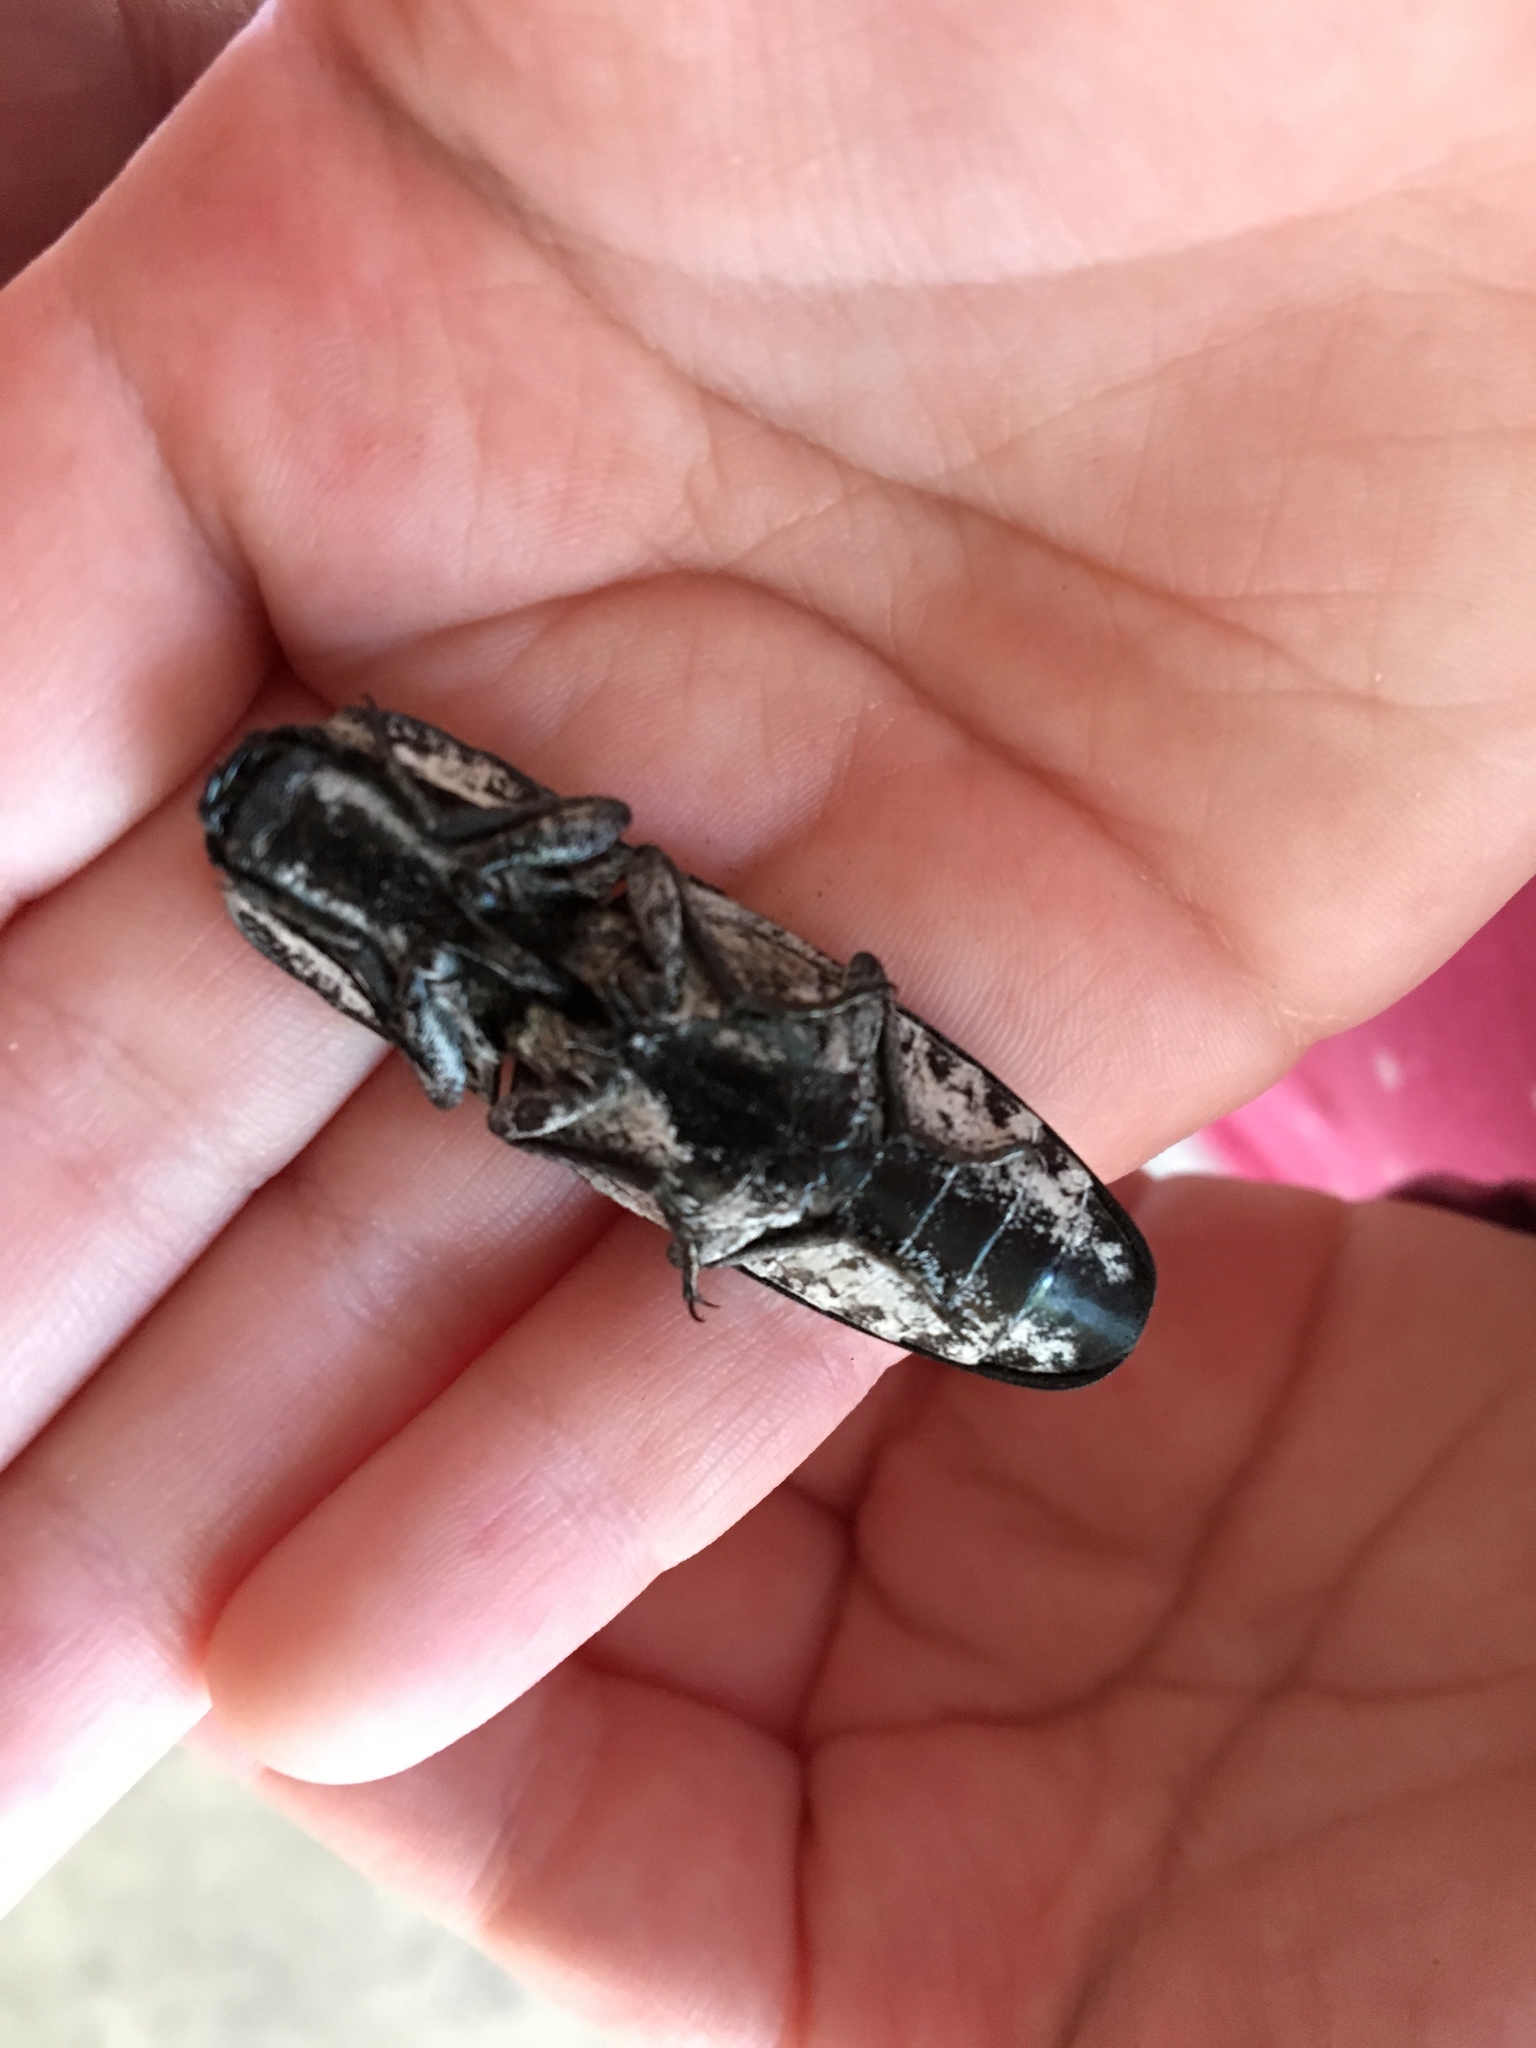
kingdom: Animalia
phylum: Arthropoda
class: Insecta
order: Coleoptera
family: Elateridae
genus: Alaus
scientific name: Alaus
